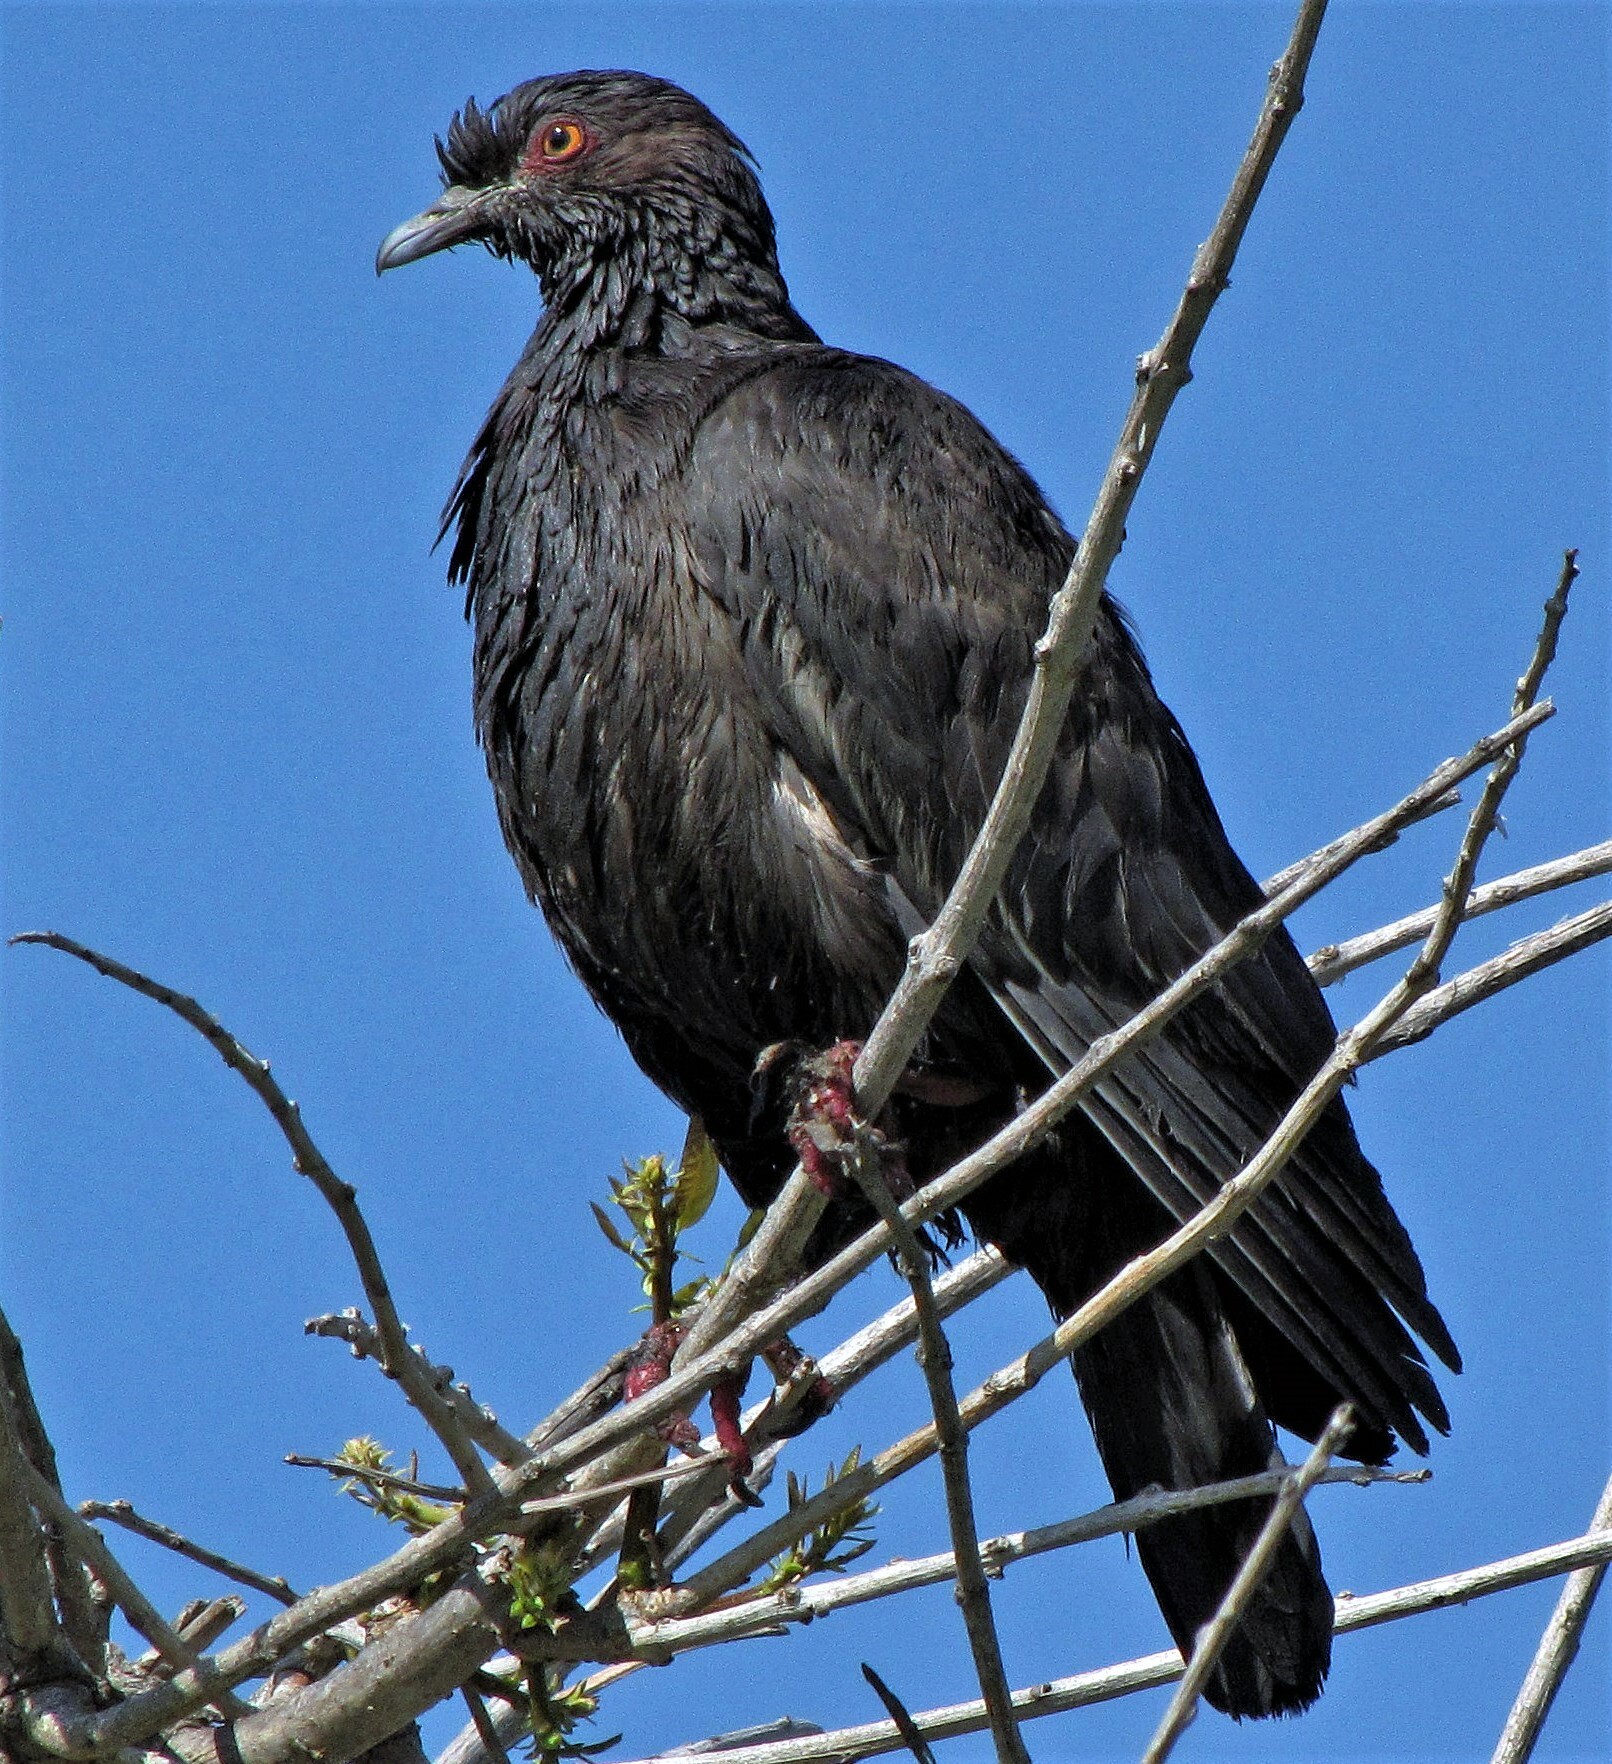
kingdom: Animalia
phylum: Chordata
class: Aves
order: Columbiformes
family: Columbidae
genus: Patagioenas
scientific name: Patagioenas picazuro
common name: Picazuro pigeon
